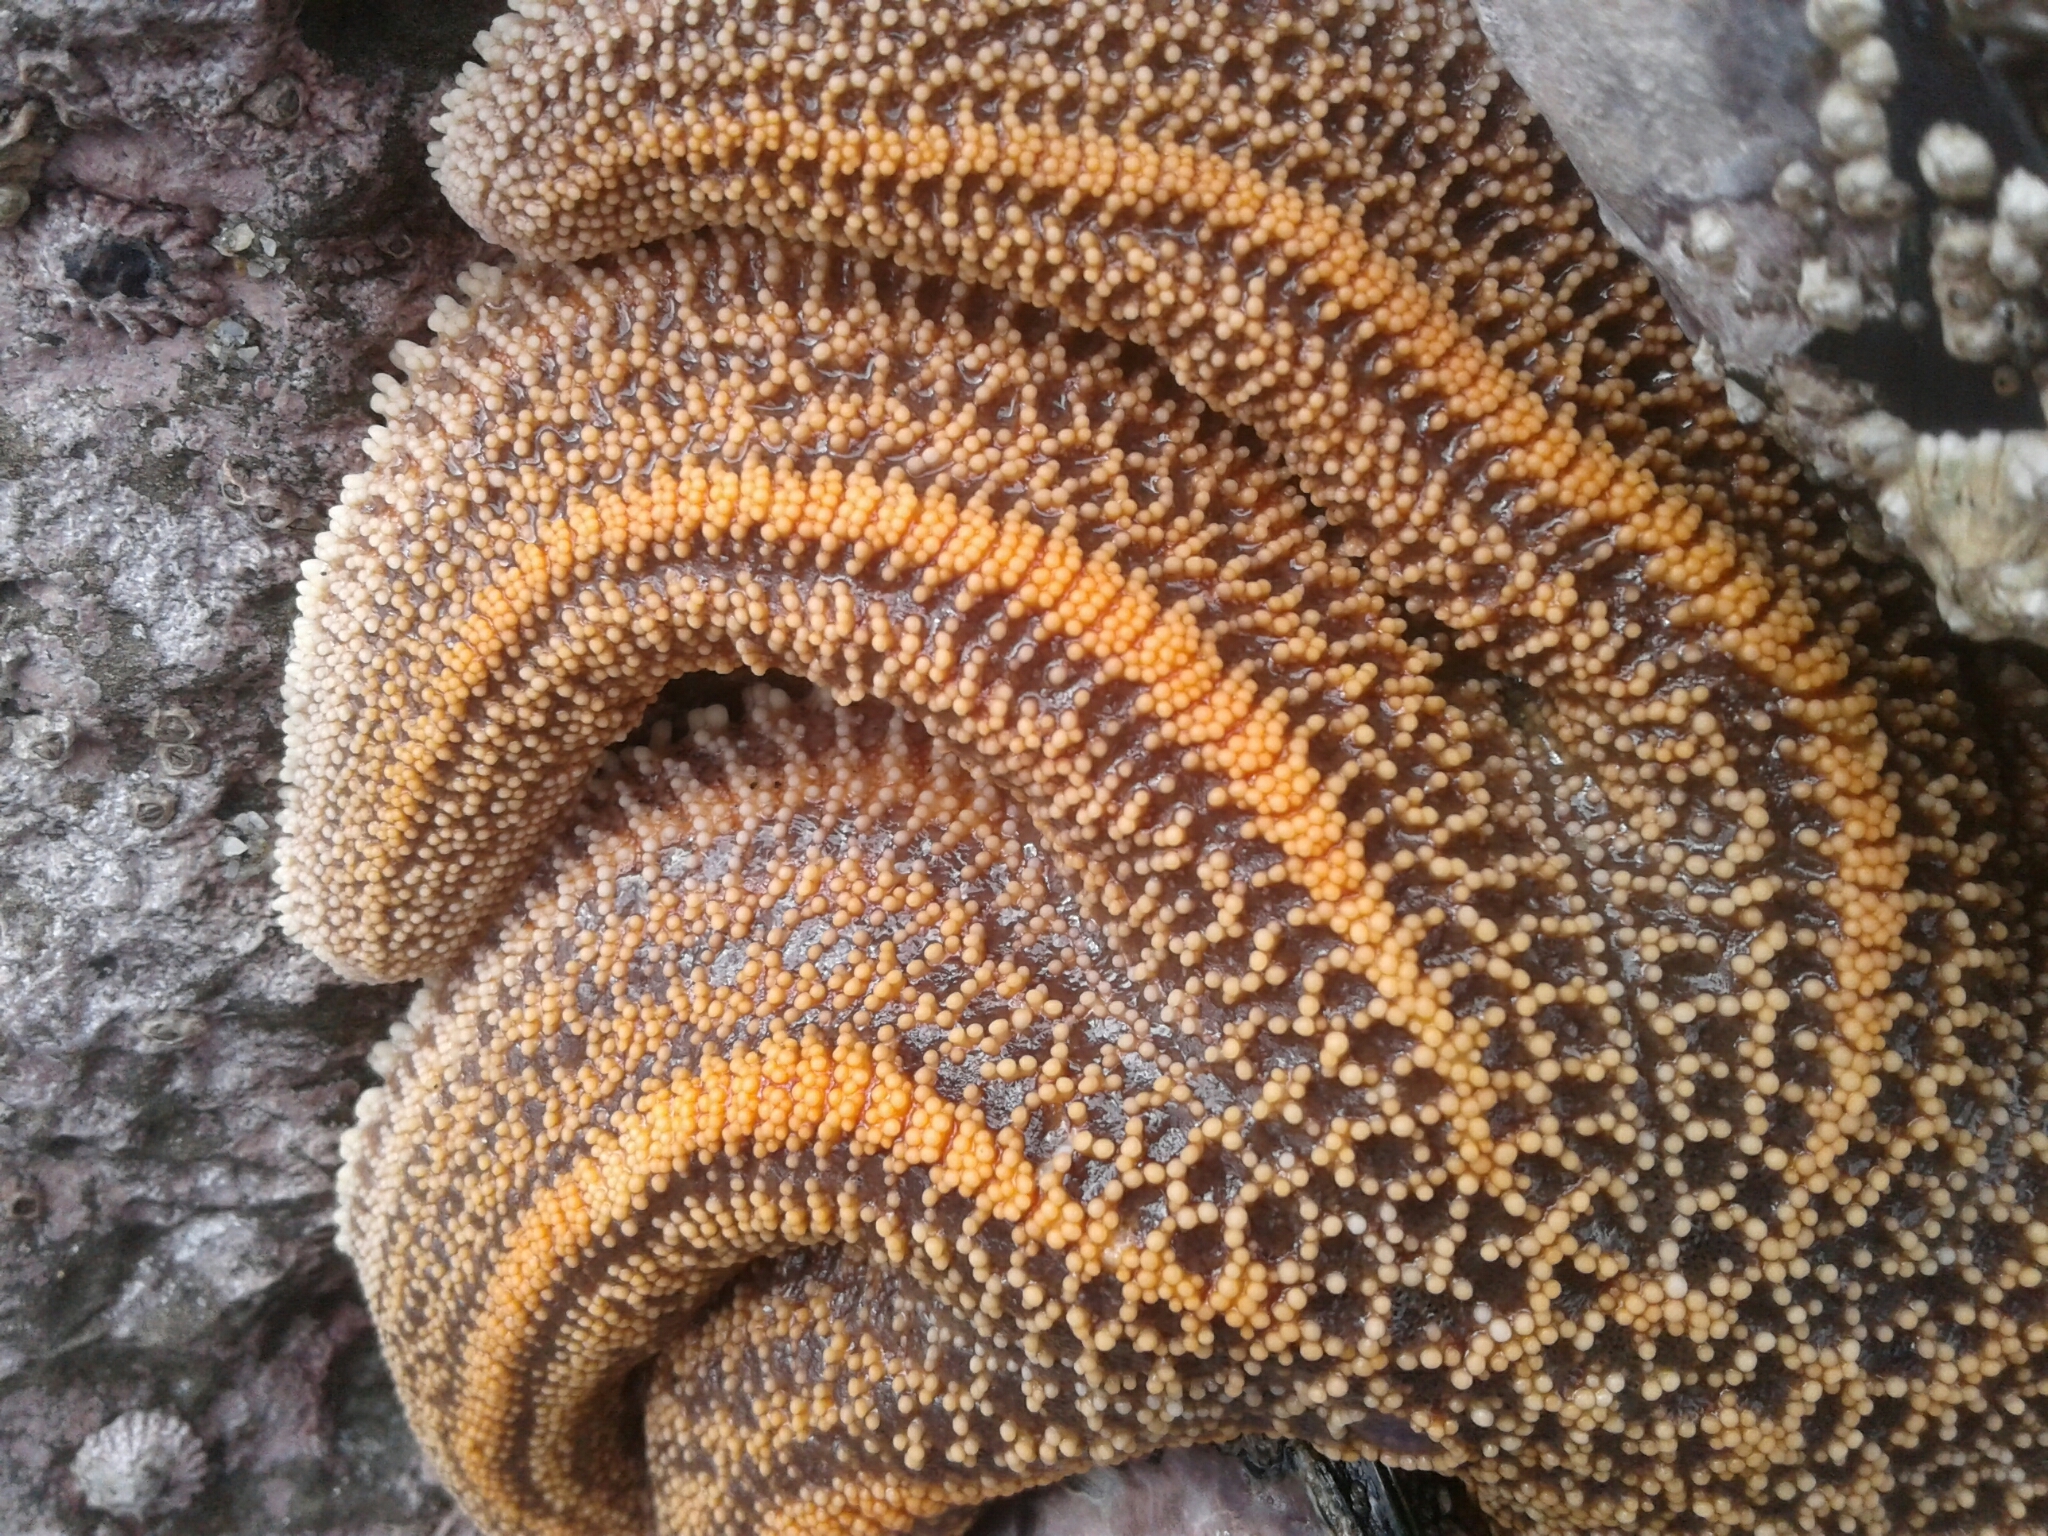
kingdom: Animalia
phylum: Echinodermata
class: Asteroidea
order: Forcipulatida
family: Stichasteridae
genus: Stichaster
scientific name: Stichaster australis
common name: Reef starfish
